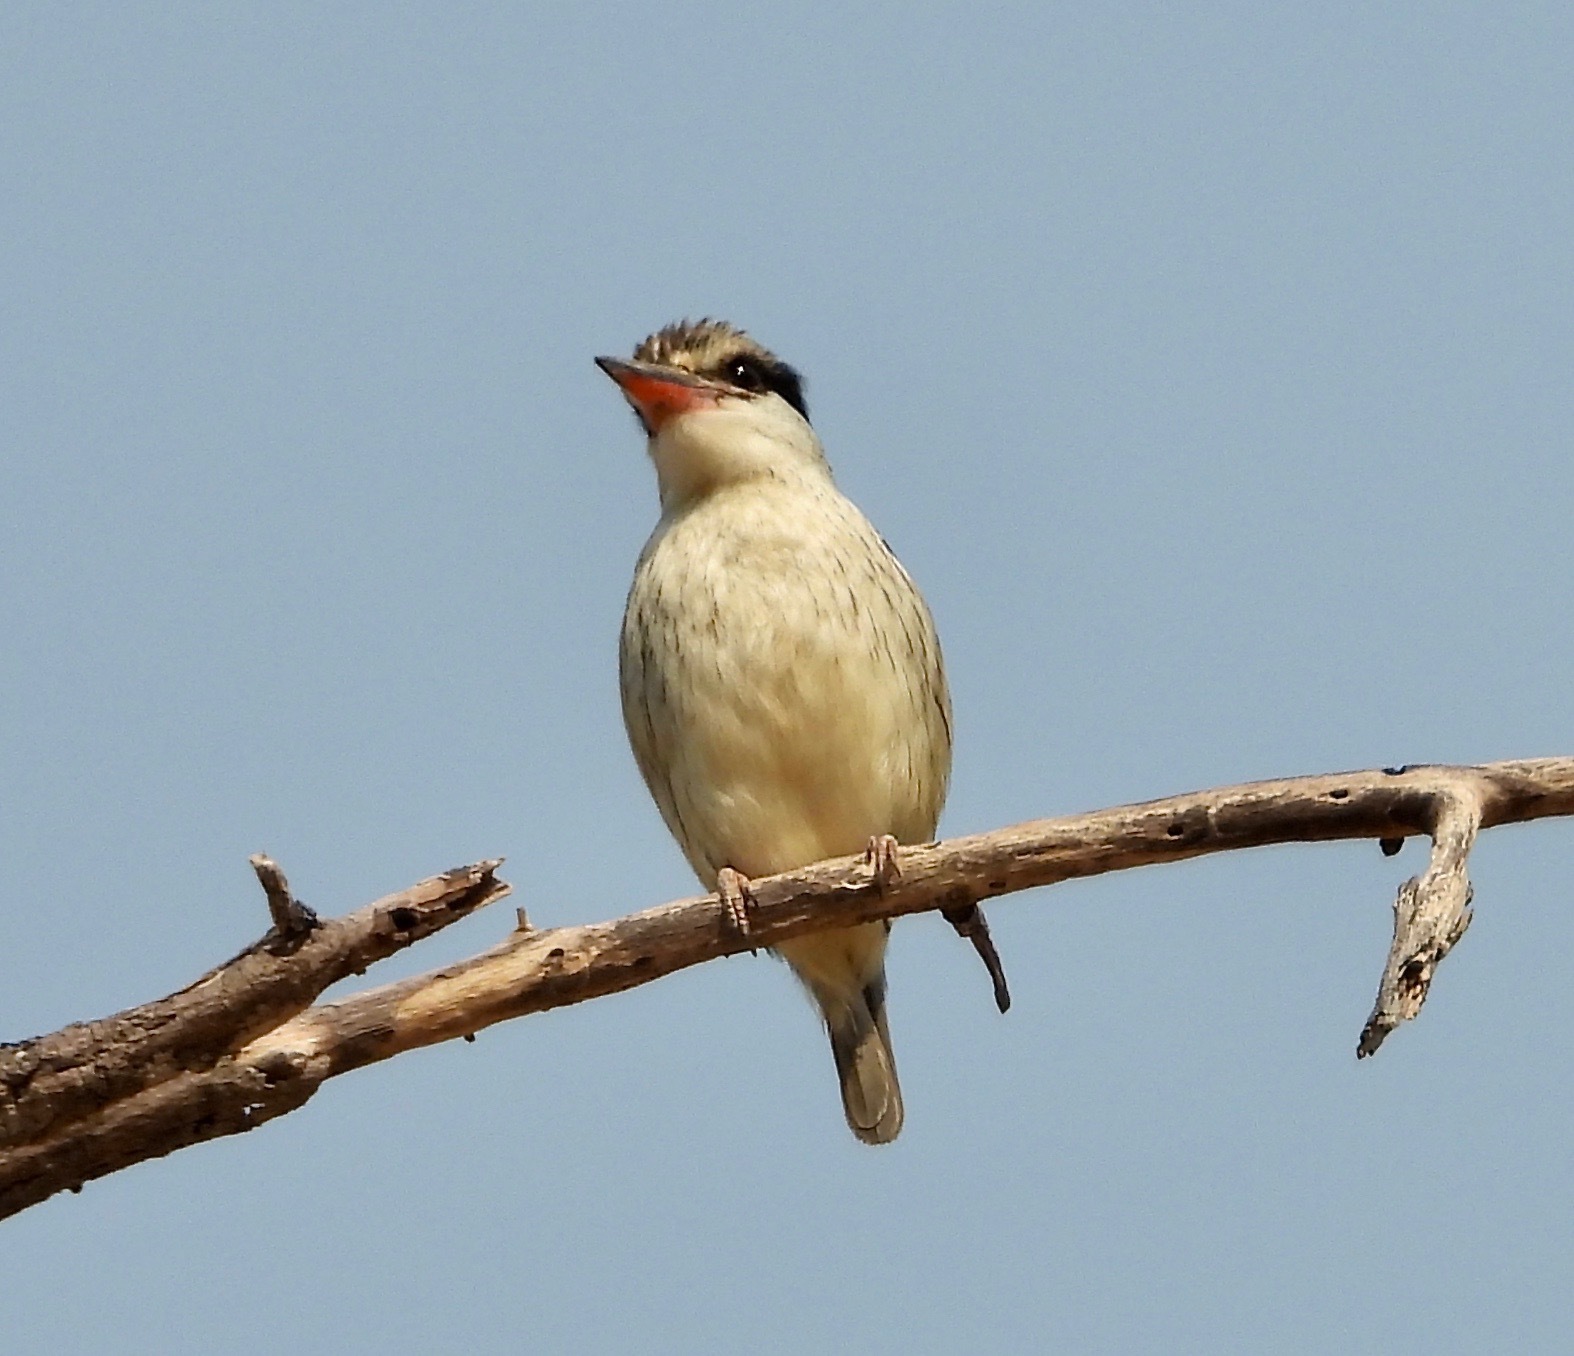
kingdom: Animalia
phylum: Chordata
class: Aves
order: Coraciiformes
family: Alcedinidae
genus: Halcyon
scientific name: Halcyon chelicuti
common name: Striped kingfisher
